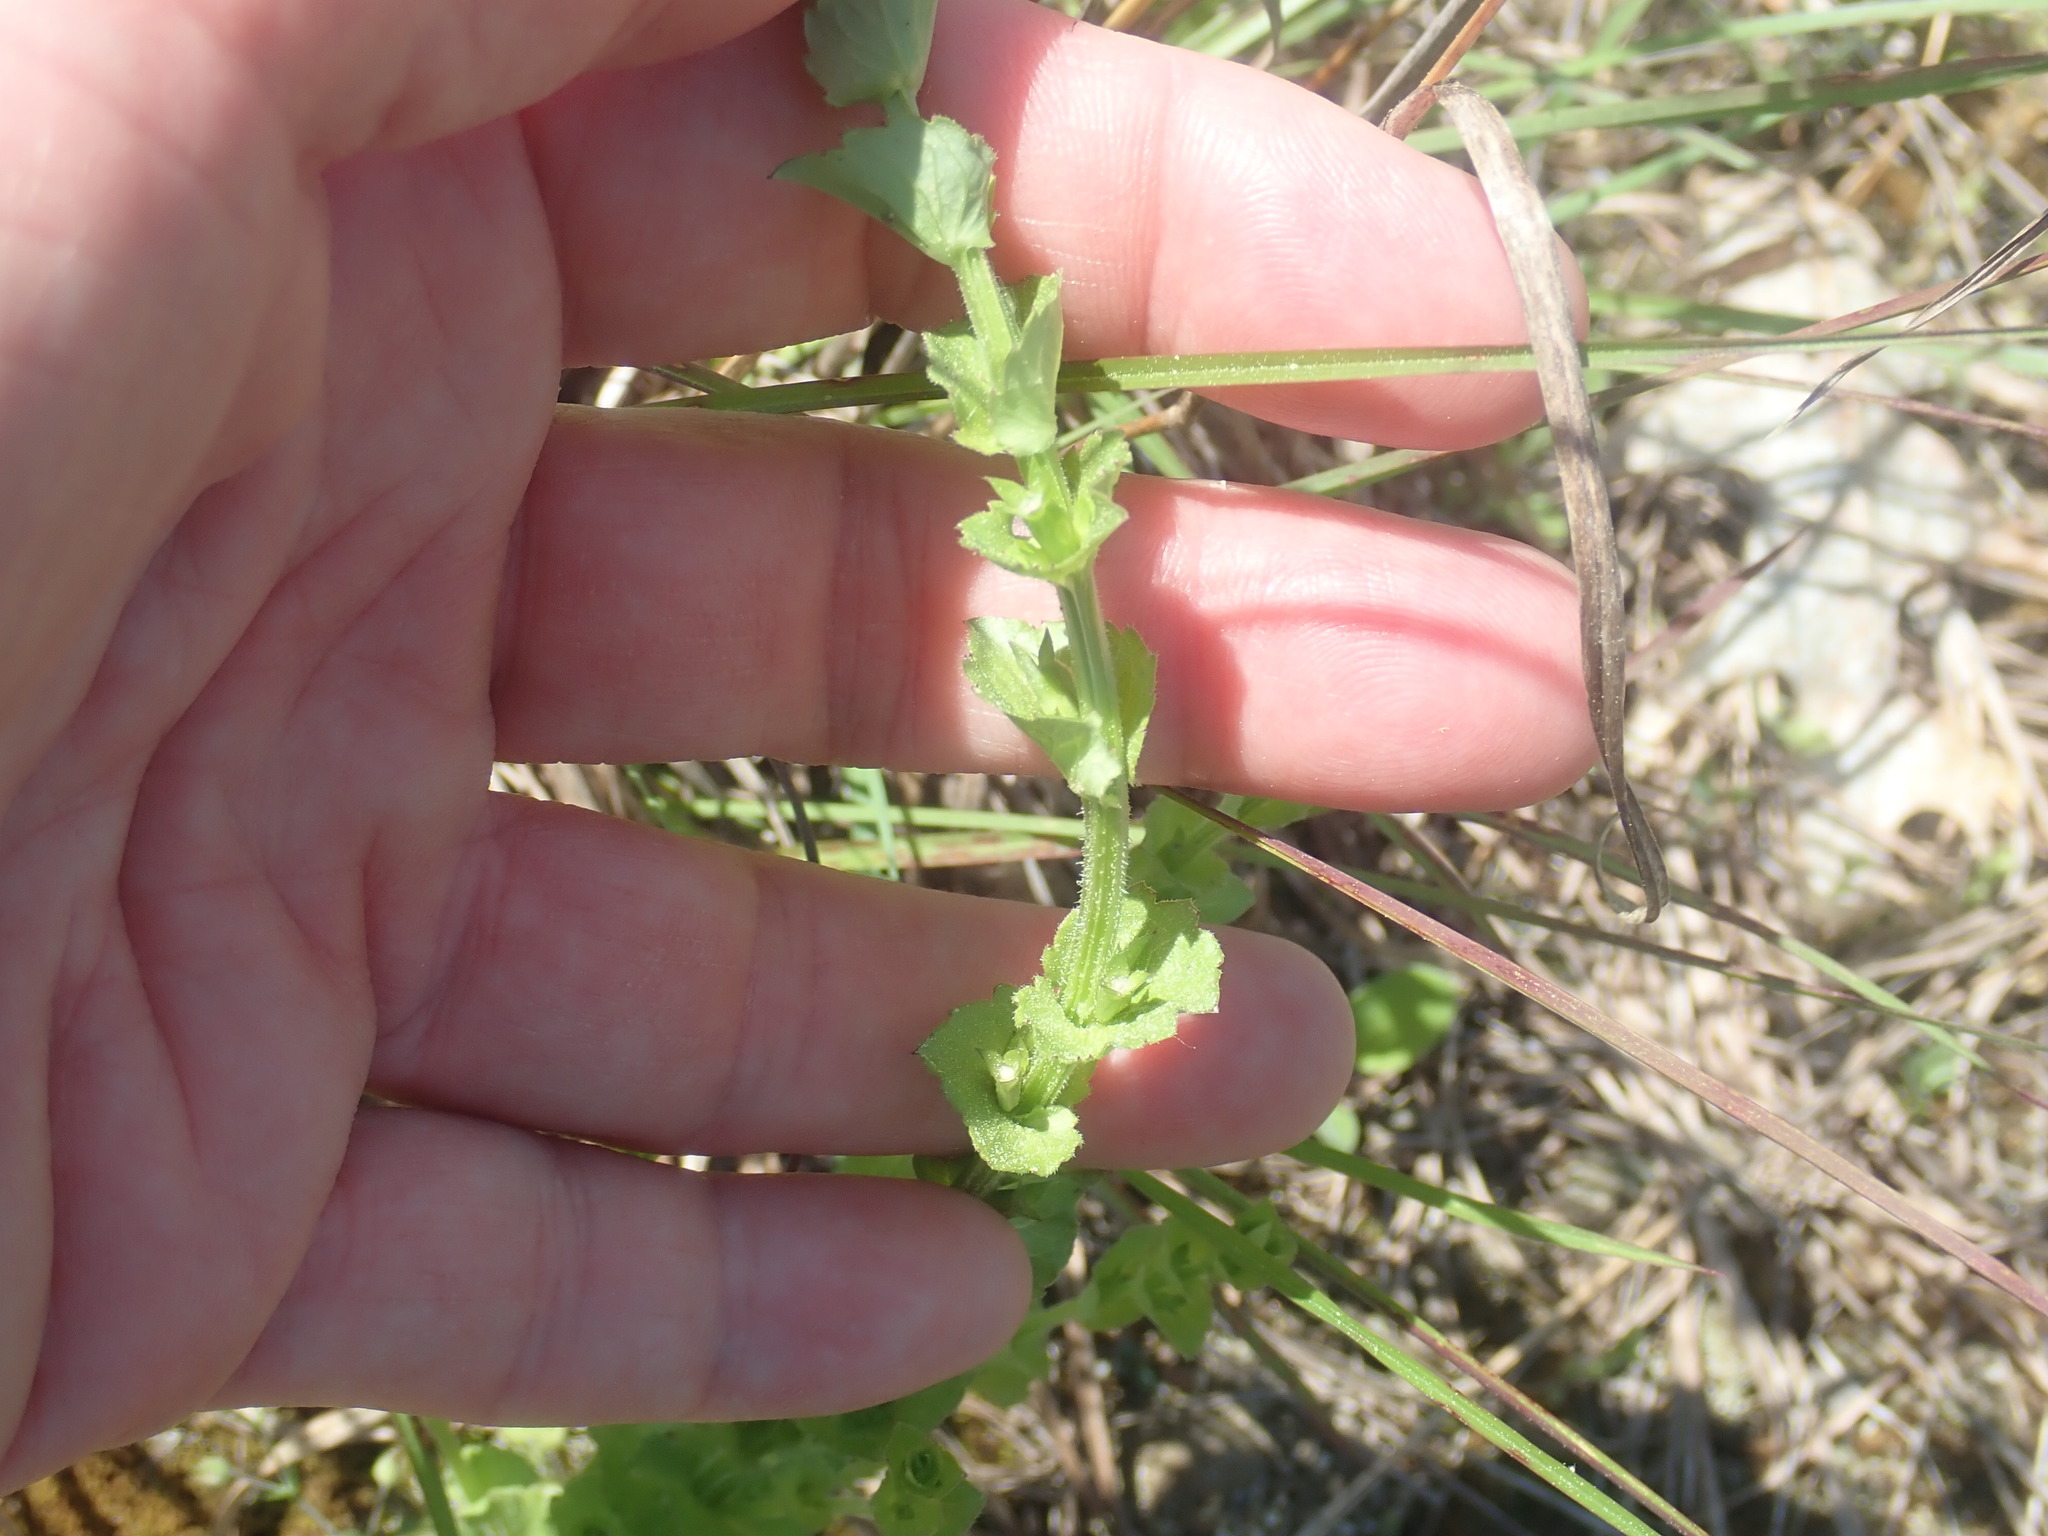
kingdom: Plantae
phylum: Tracheophyta
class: Magnoliopsida
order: Asterales
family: Campanulaceae
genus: Triodanis
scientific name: Triodanis perfoliata
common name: Clasping venus' looking-glass
